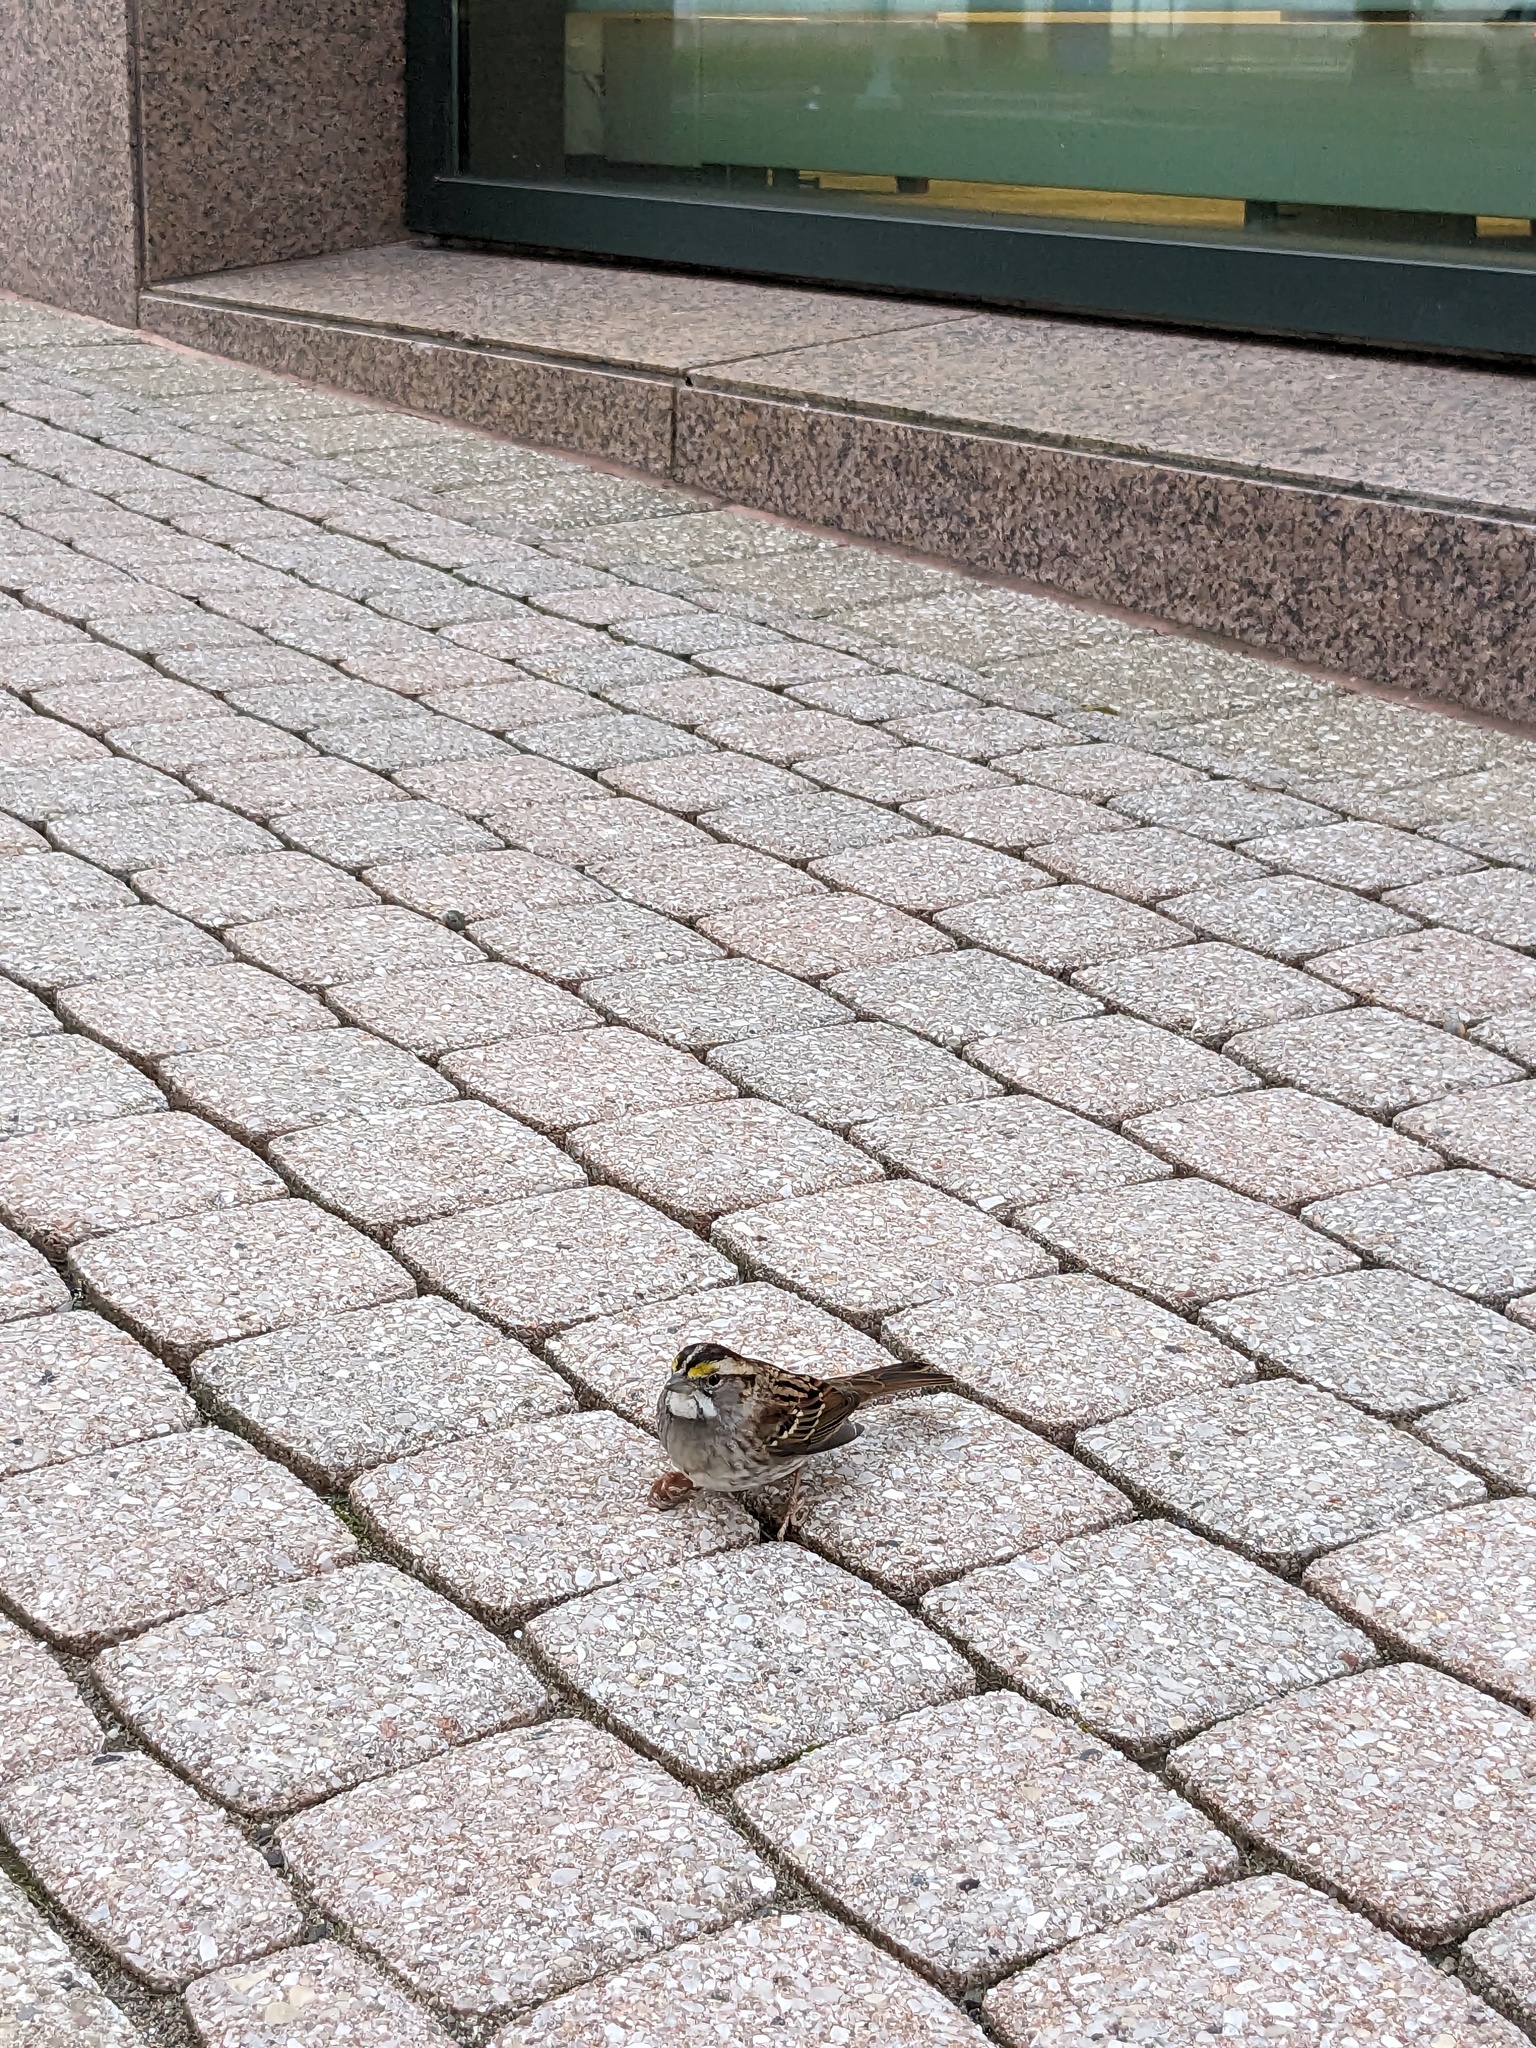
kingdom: Animalia
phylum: Chordata
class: Aves
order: Passeriformes
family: Passerellidae
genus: Zonotrichia
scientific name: Zonotrichia albicollis
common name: White-throated sparrow
